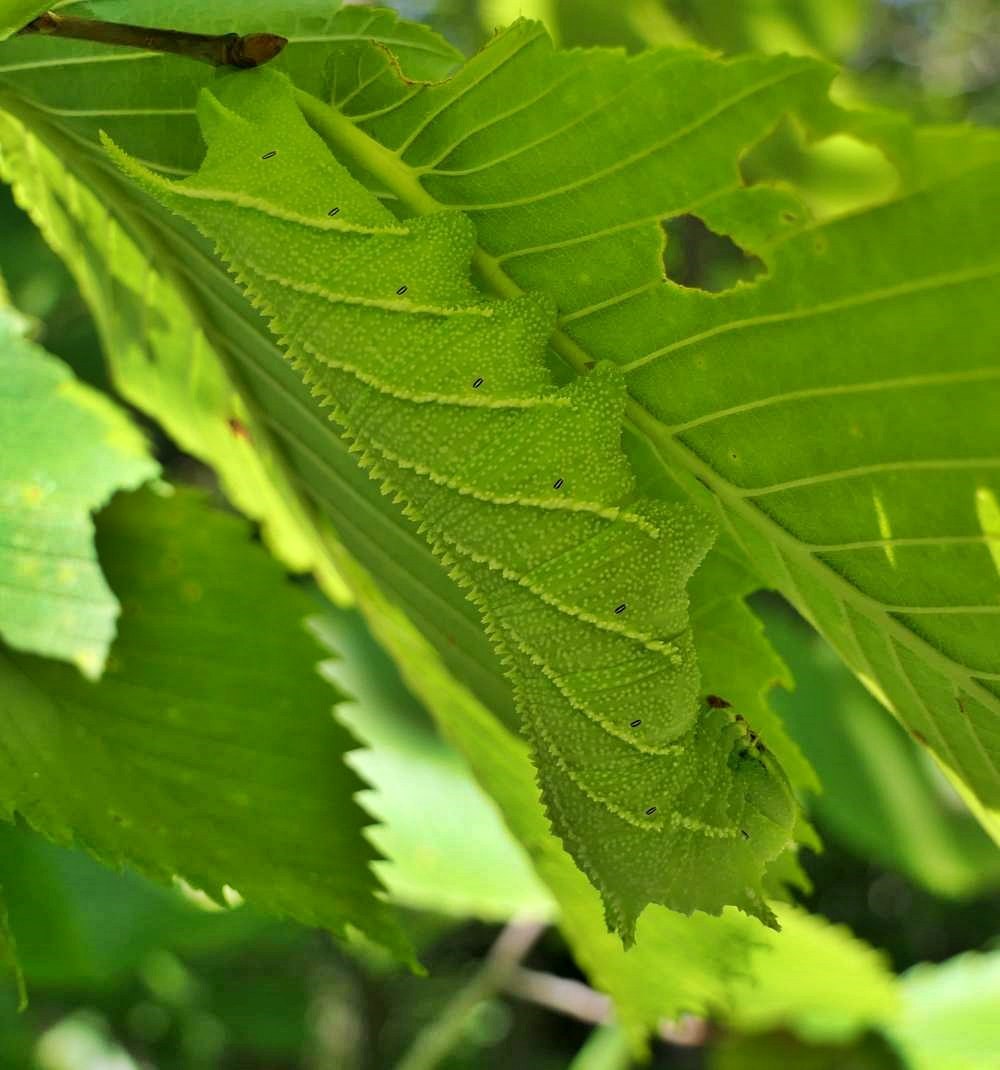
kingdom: Animalia
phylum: Arthropoda
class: Insecta
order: Lepidoptera
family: Sphingidae
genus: Ceratomia
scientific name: Ceratomia amyntor
